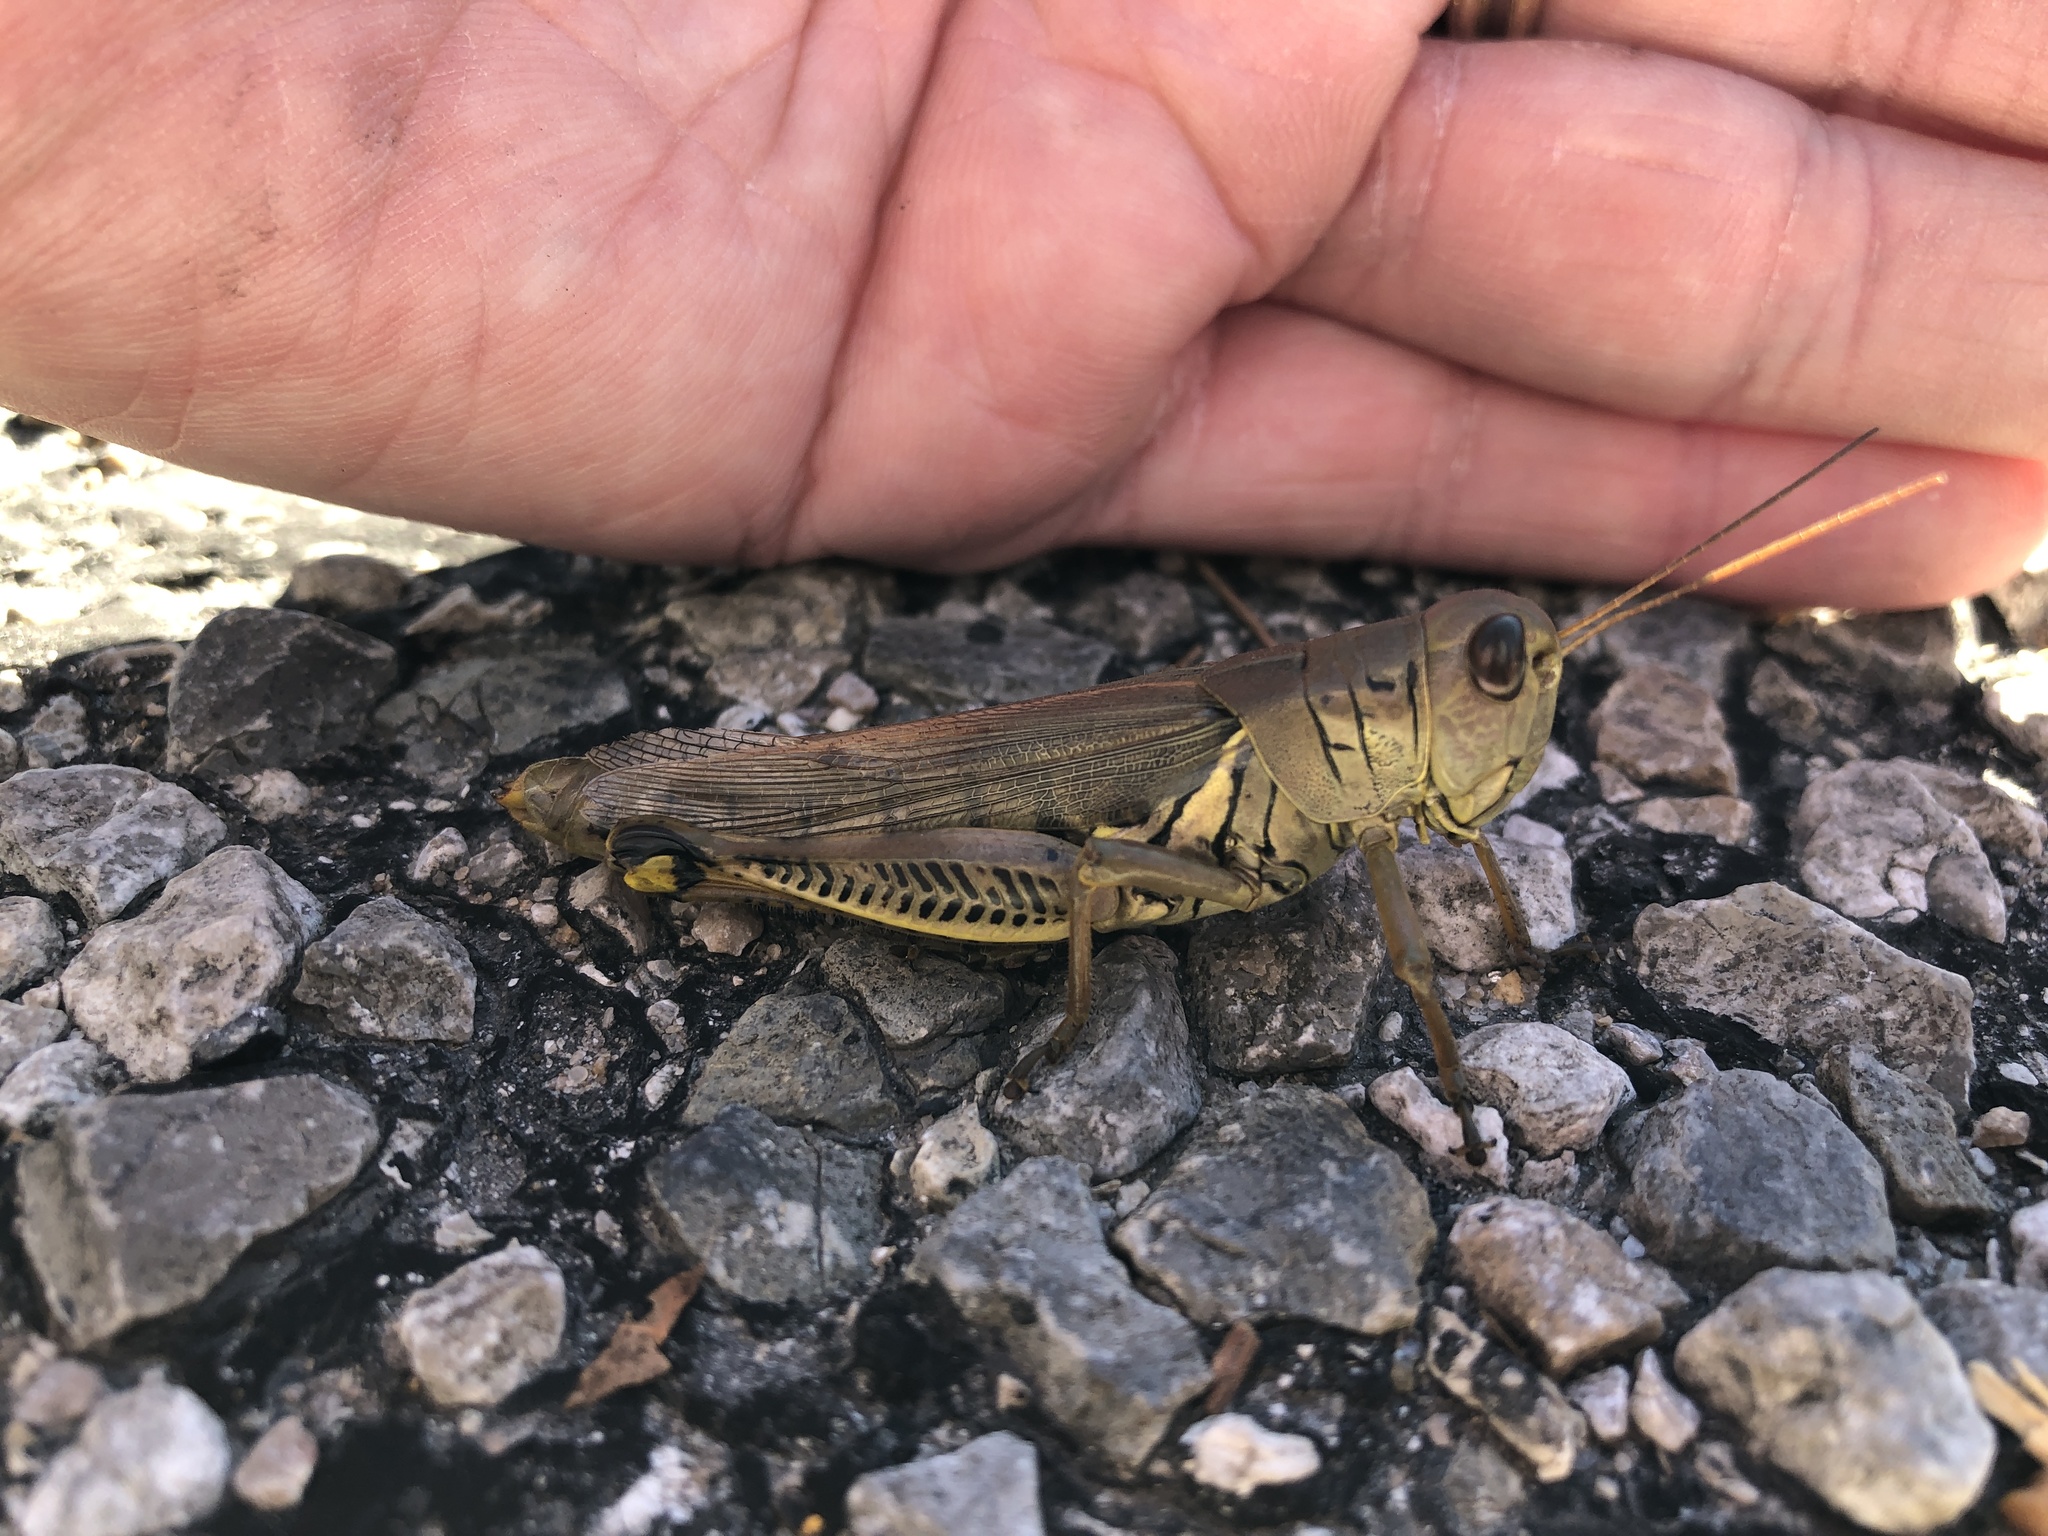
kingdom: Animalia
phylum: Arthropoda
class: Insecta
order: Orthoptera
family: Acrididae
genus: Melanoplus
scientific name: Melanoplus differentialis
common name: Differential grasshopper
